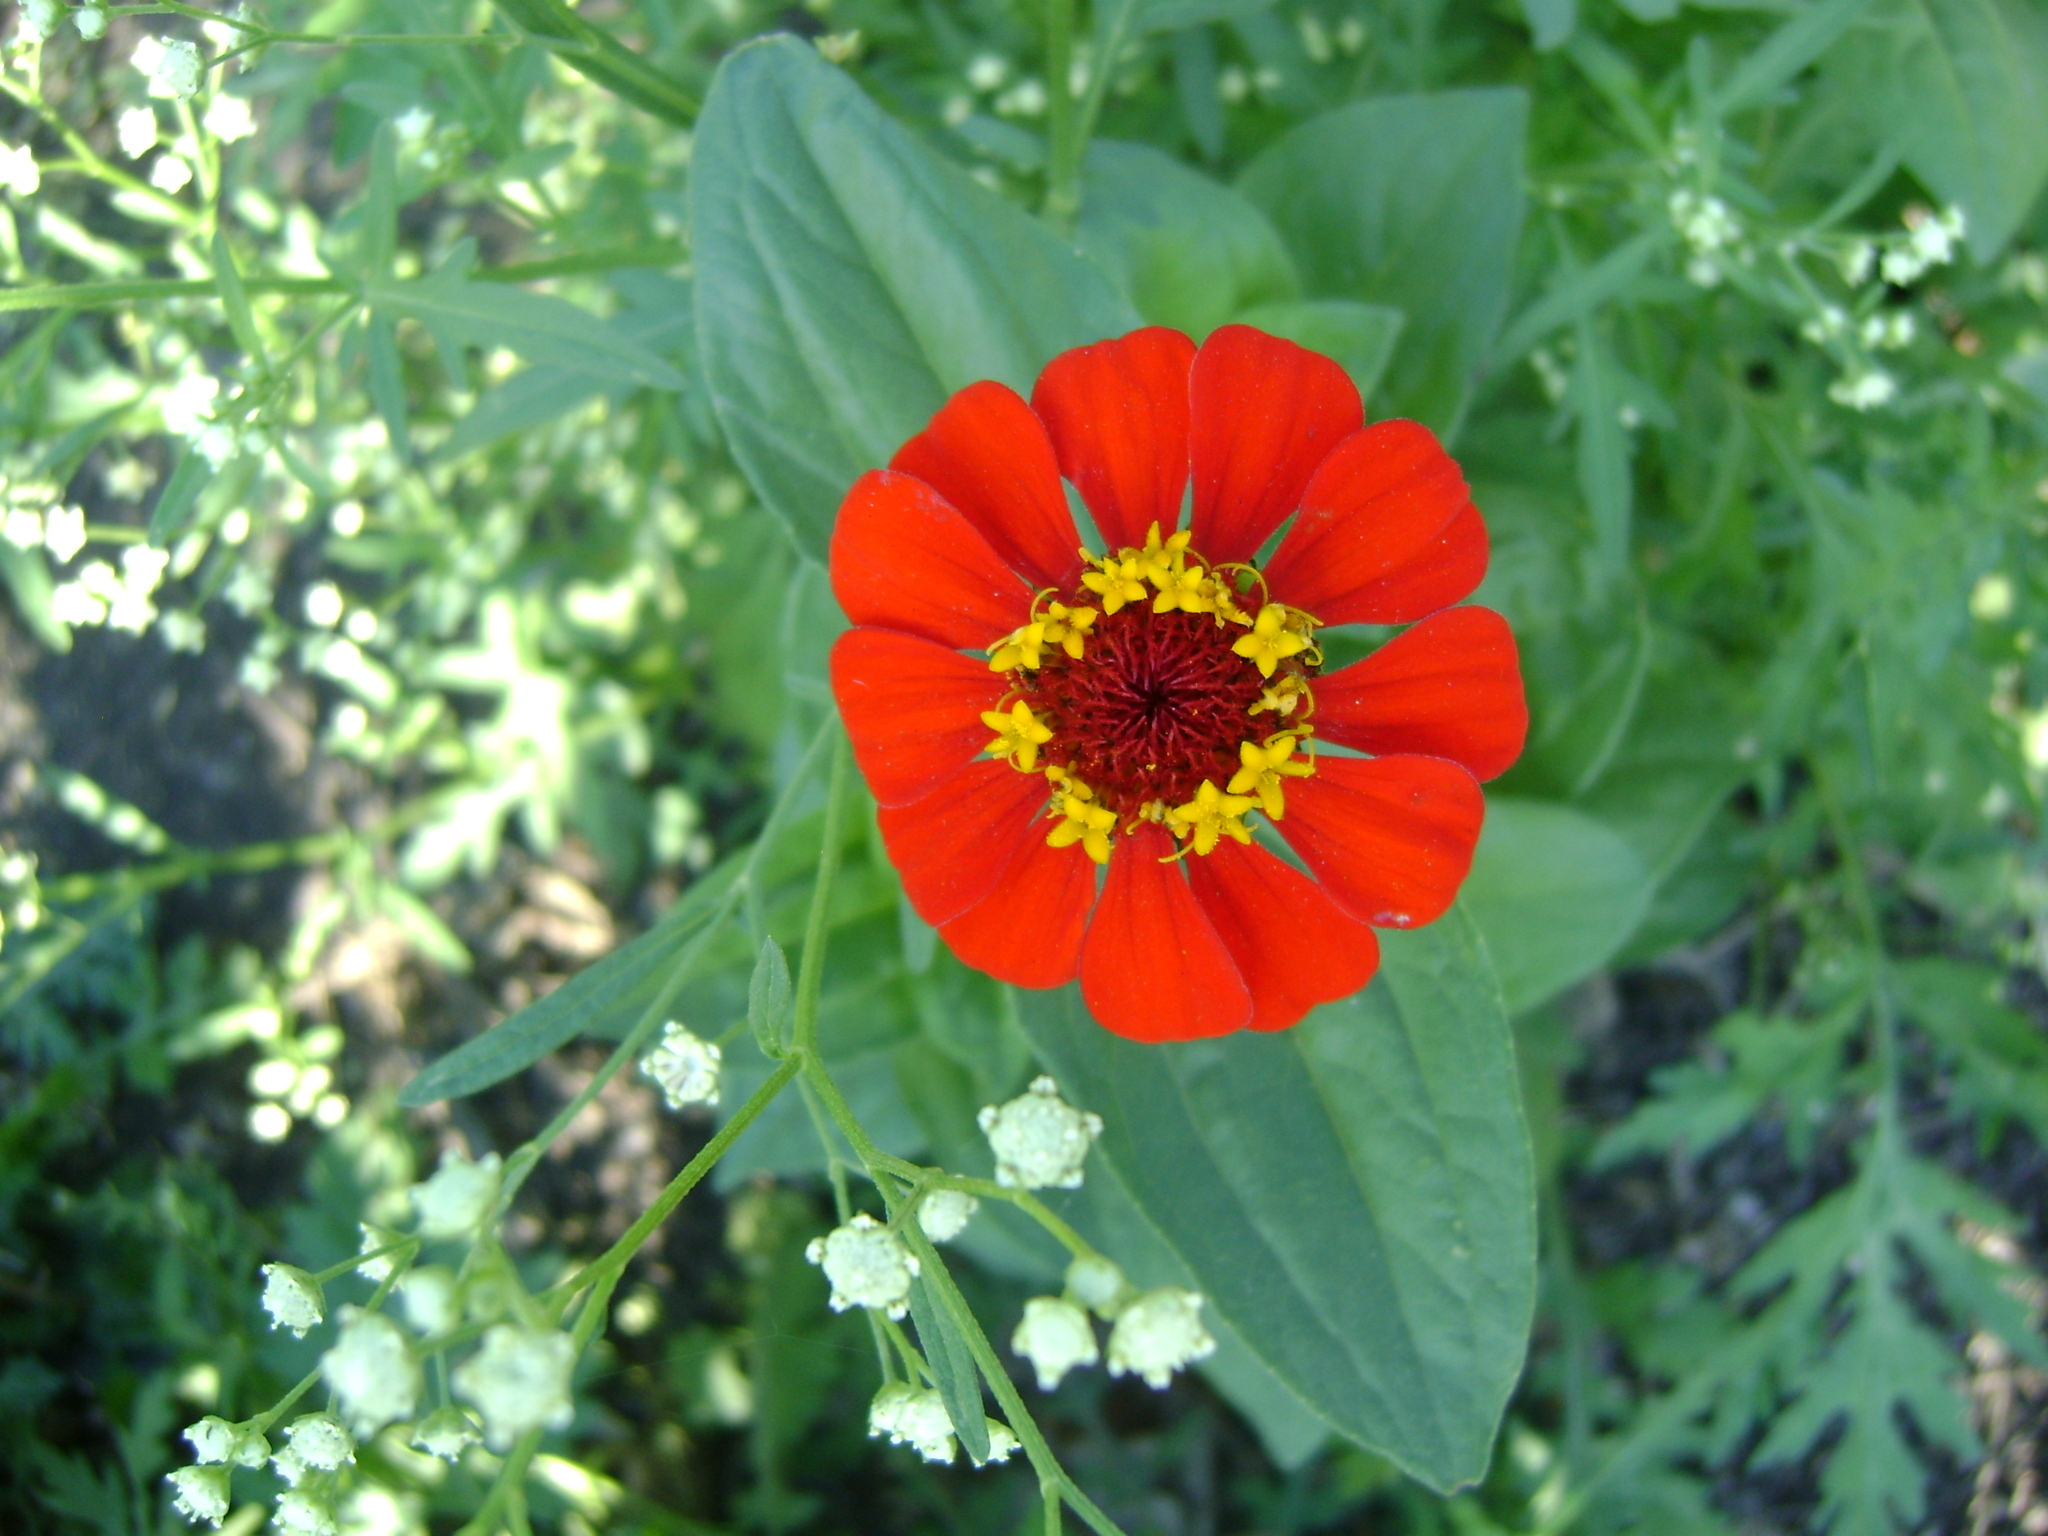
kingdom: Plantae
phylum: Tracheophyta
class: Magnoliopsida
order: Asterales
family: Asteraceae
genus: Zinnia
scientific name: Zinnia elegans
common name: Youth-and-age
